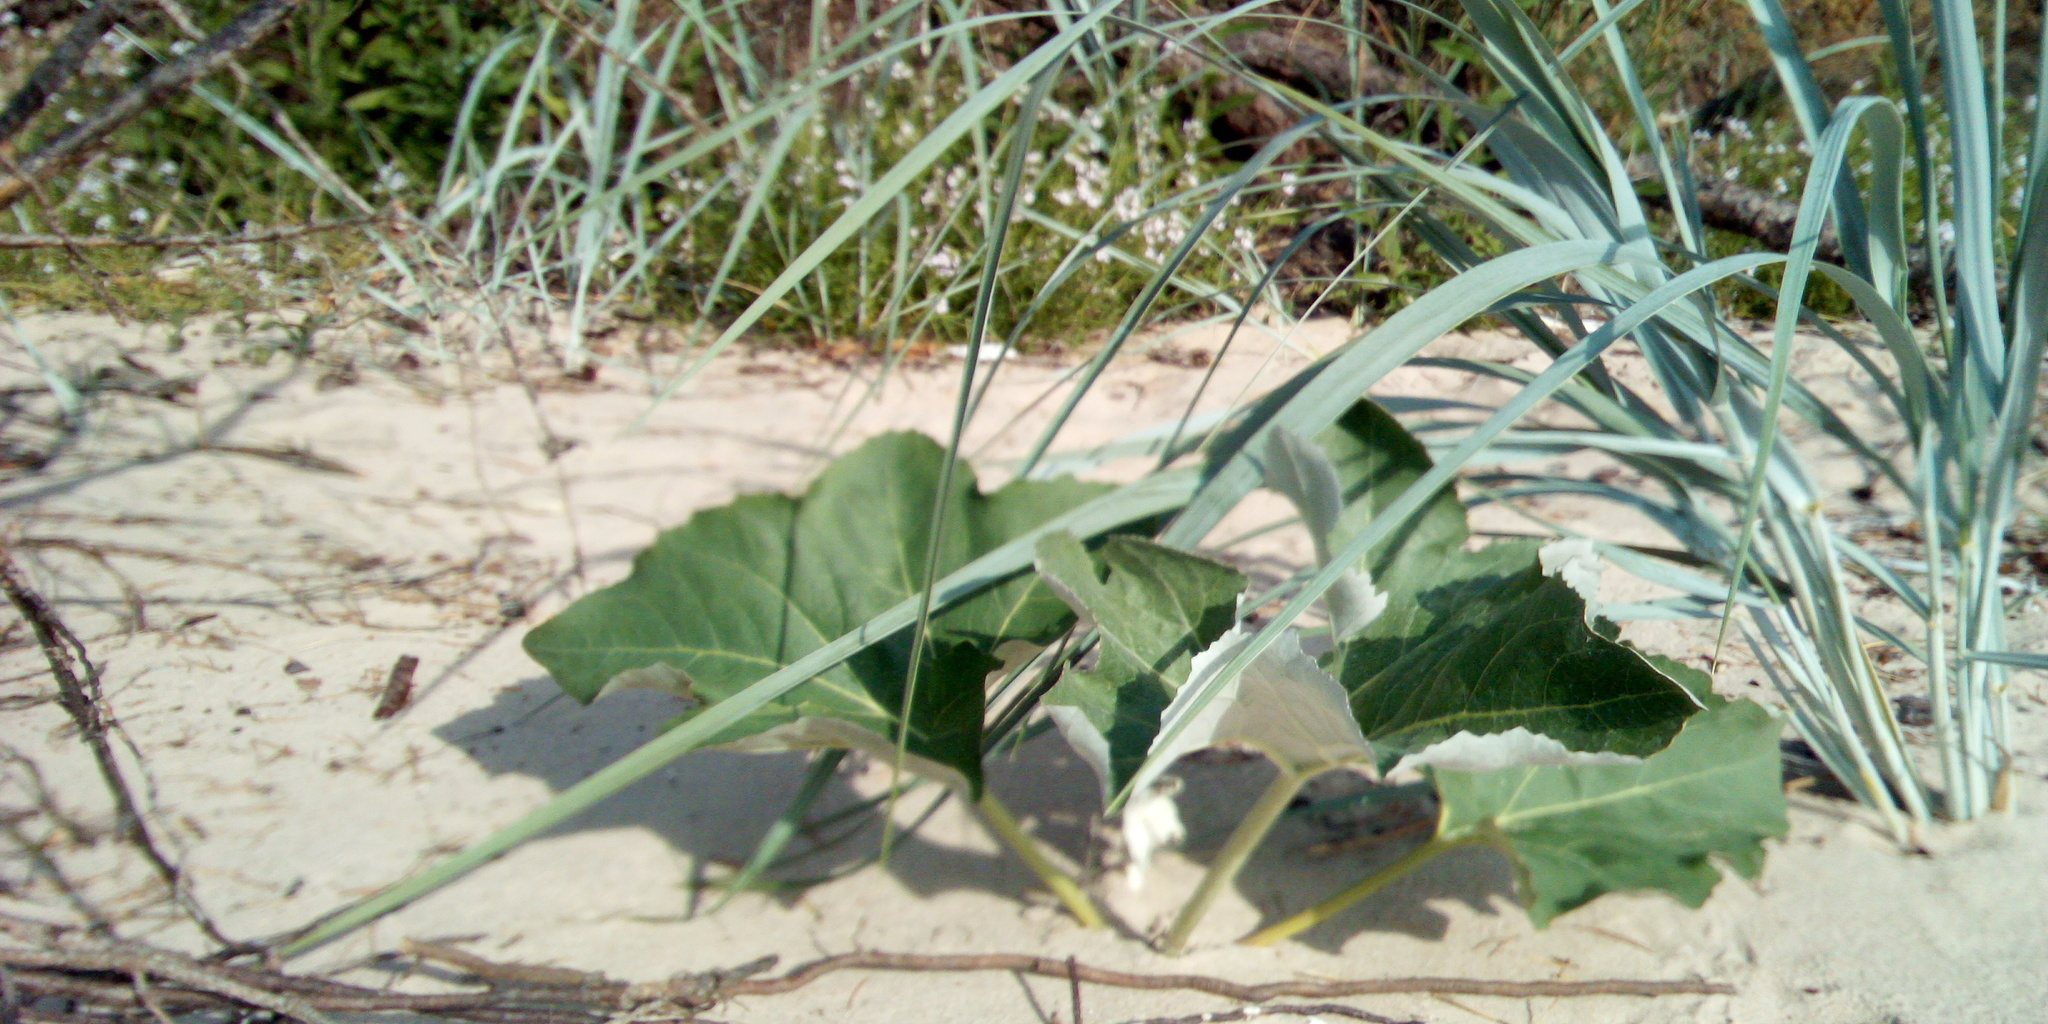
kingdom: Plantae
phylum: Tracheophyta
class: Magnoliopsida
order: Asterales
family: Asteraceae
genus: Petasites
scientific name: Petasites spurius
